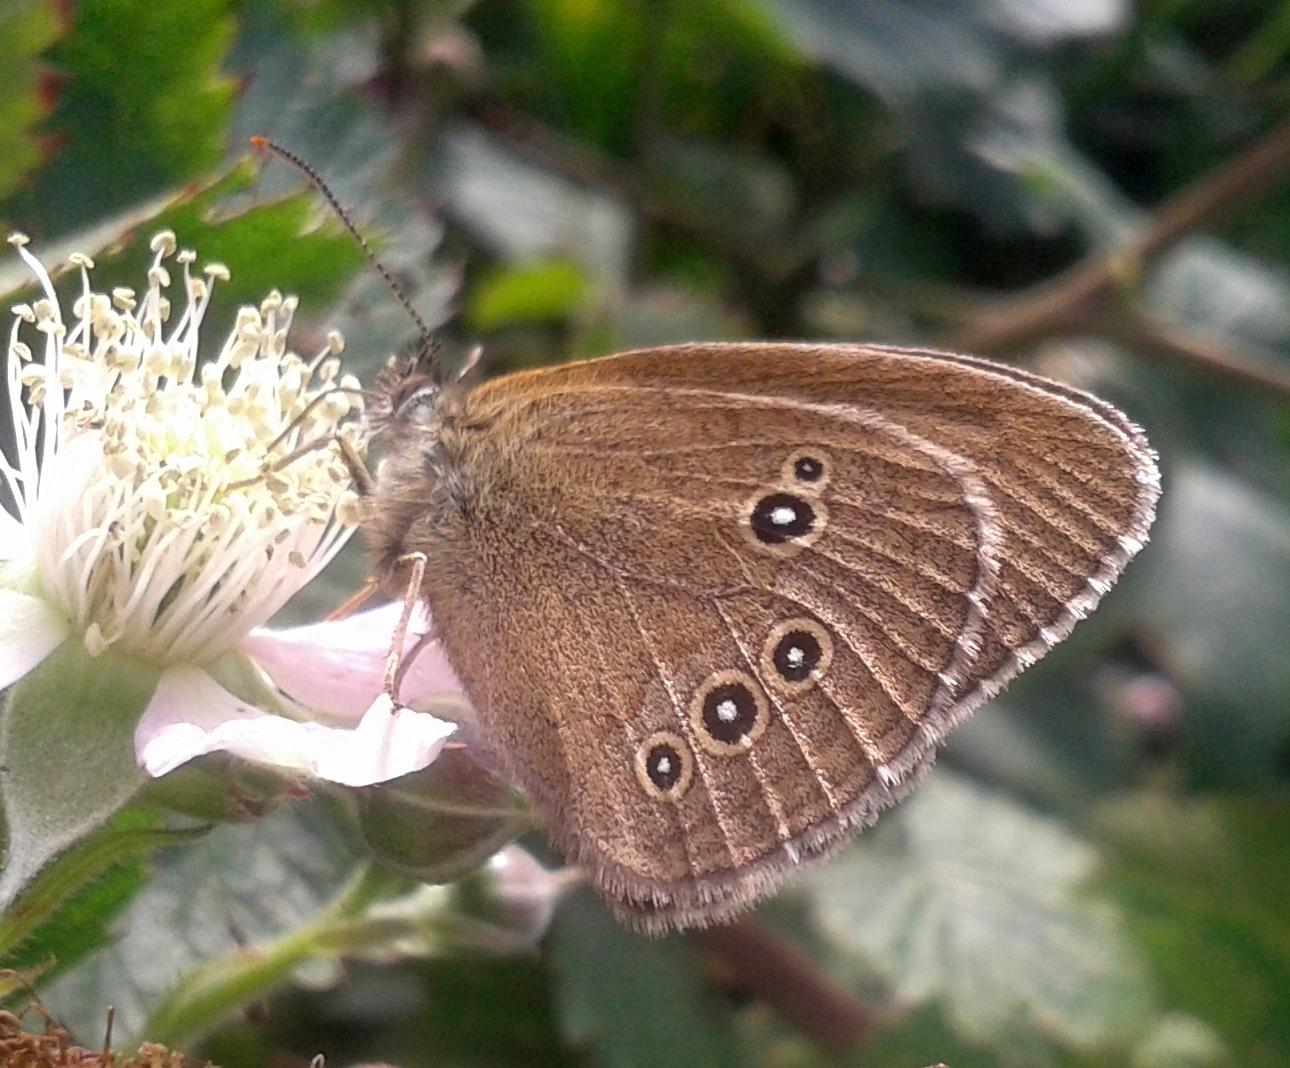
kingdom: Animalia
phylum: Arthropoda
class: Insecta
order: Lepidoptera
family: Nymphalidae
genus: Aphantopus
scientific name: Aphantopus hyperantus
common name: Ringlet
